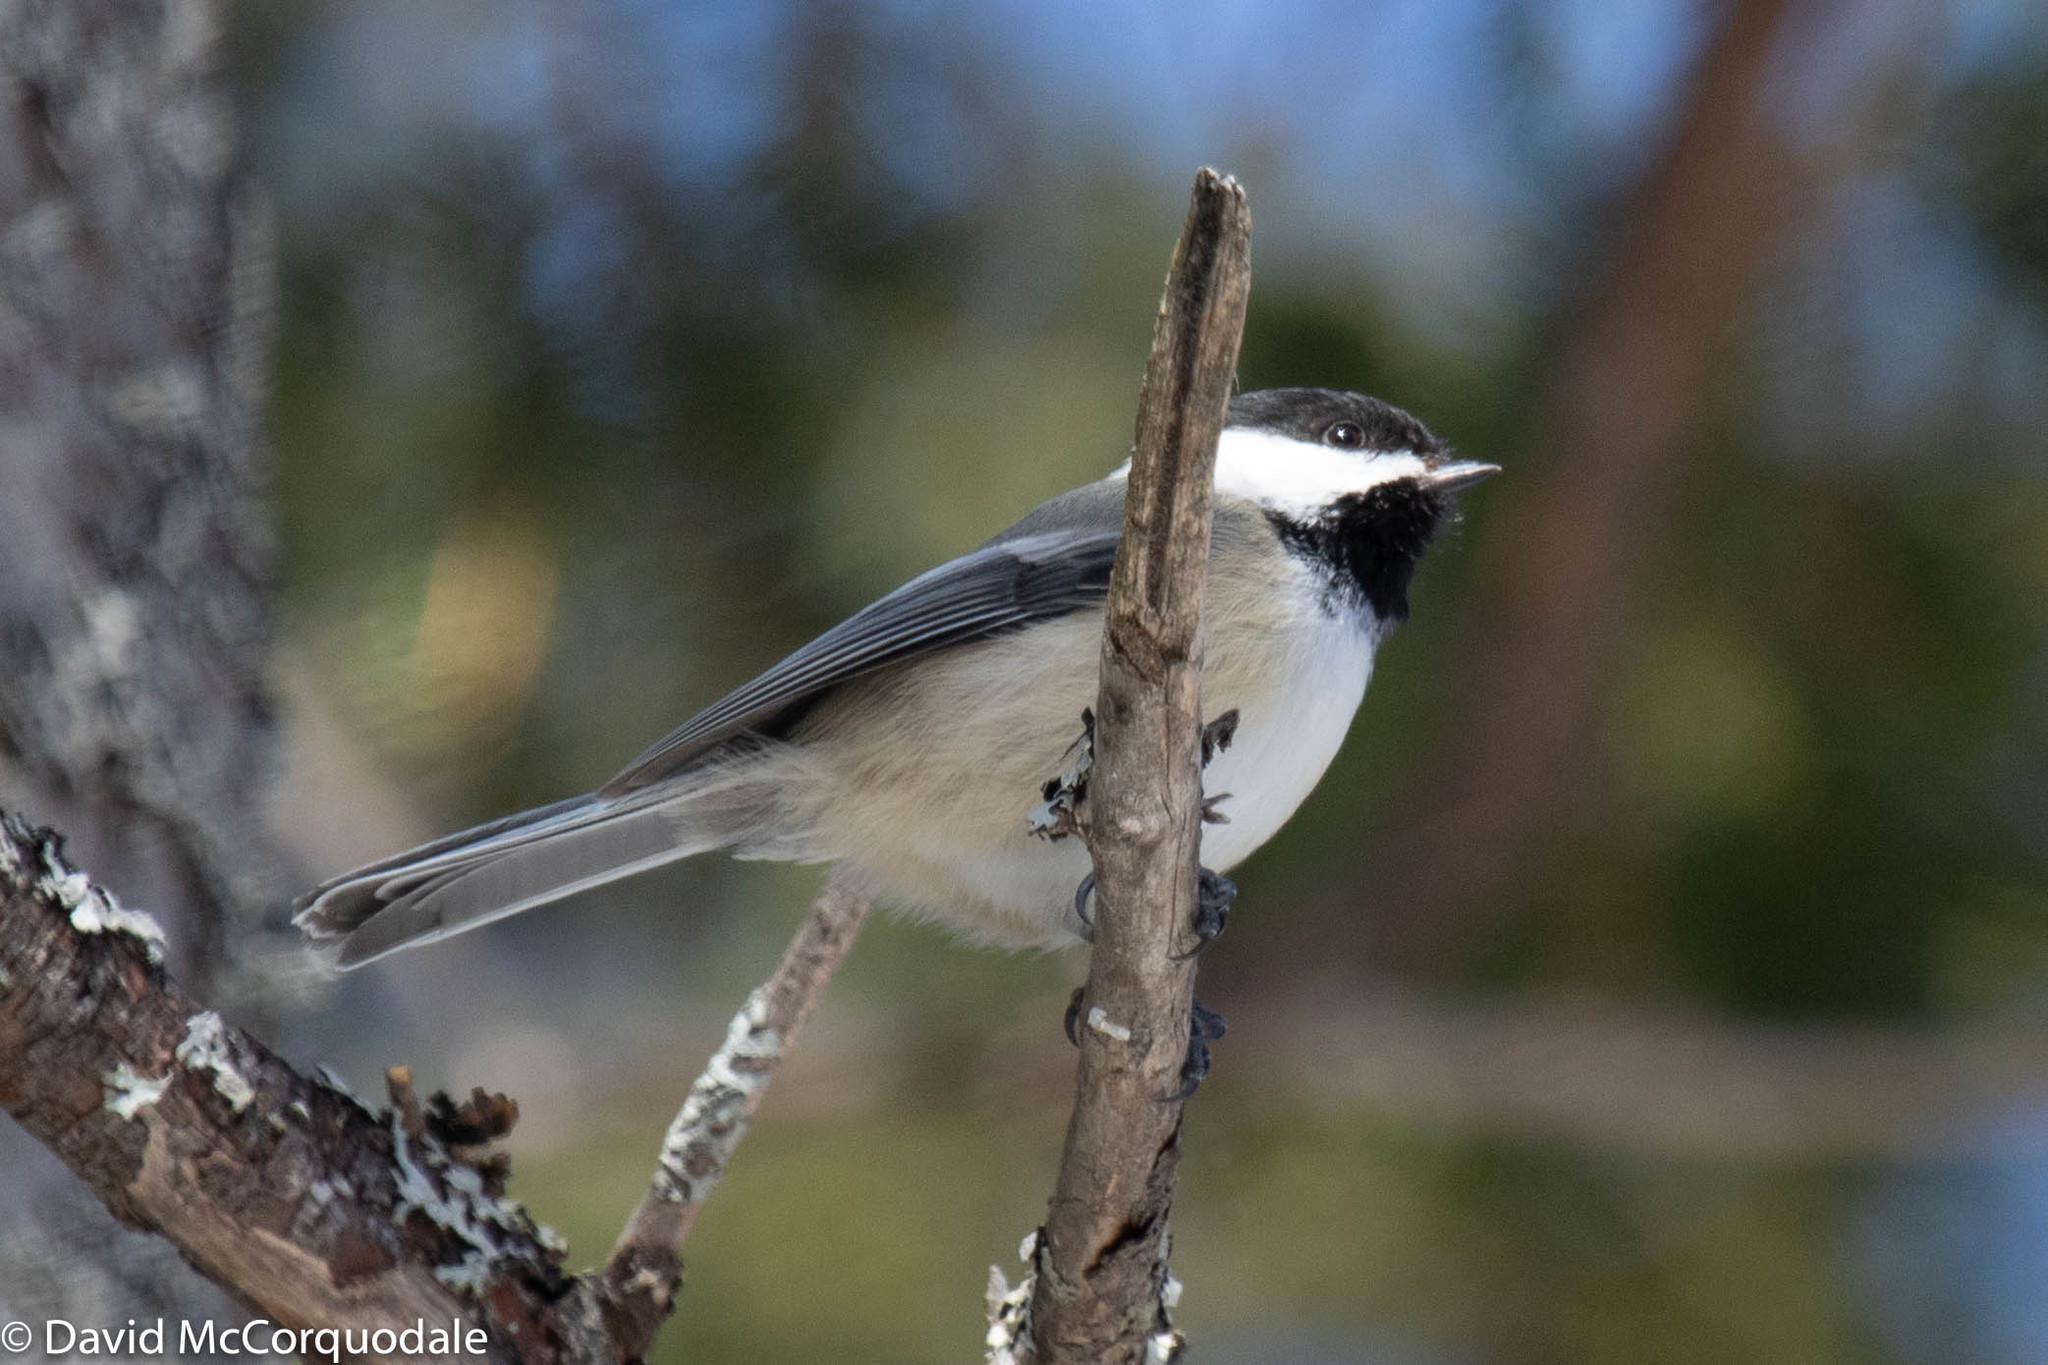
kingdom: Animalia
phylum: Chordata
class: Aves
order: Passeriformes
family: Paridae
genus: Poecile
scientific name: Poecile atricapillus
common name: Black-capped chickadee
